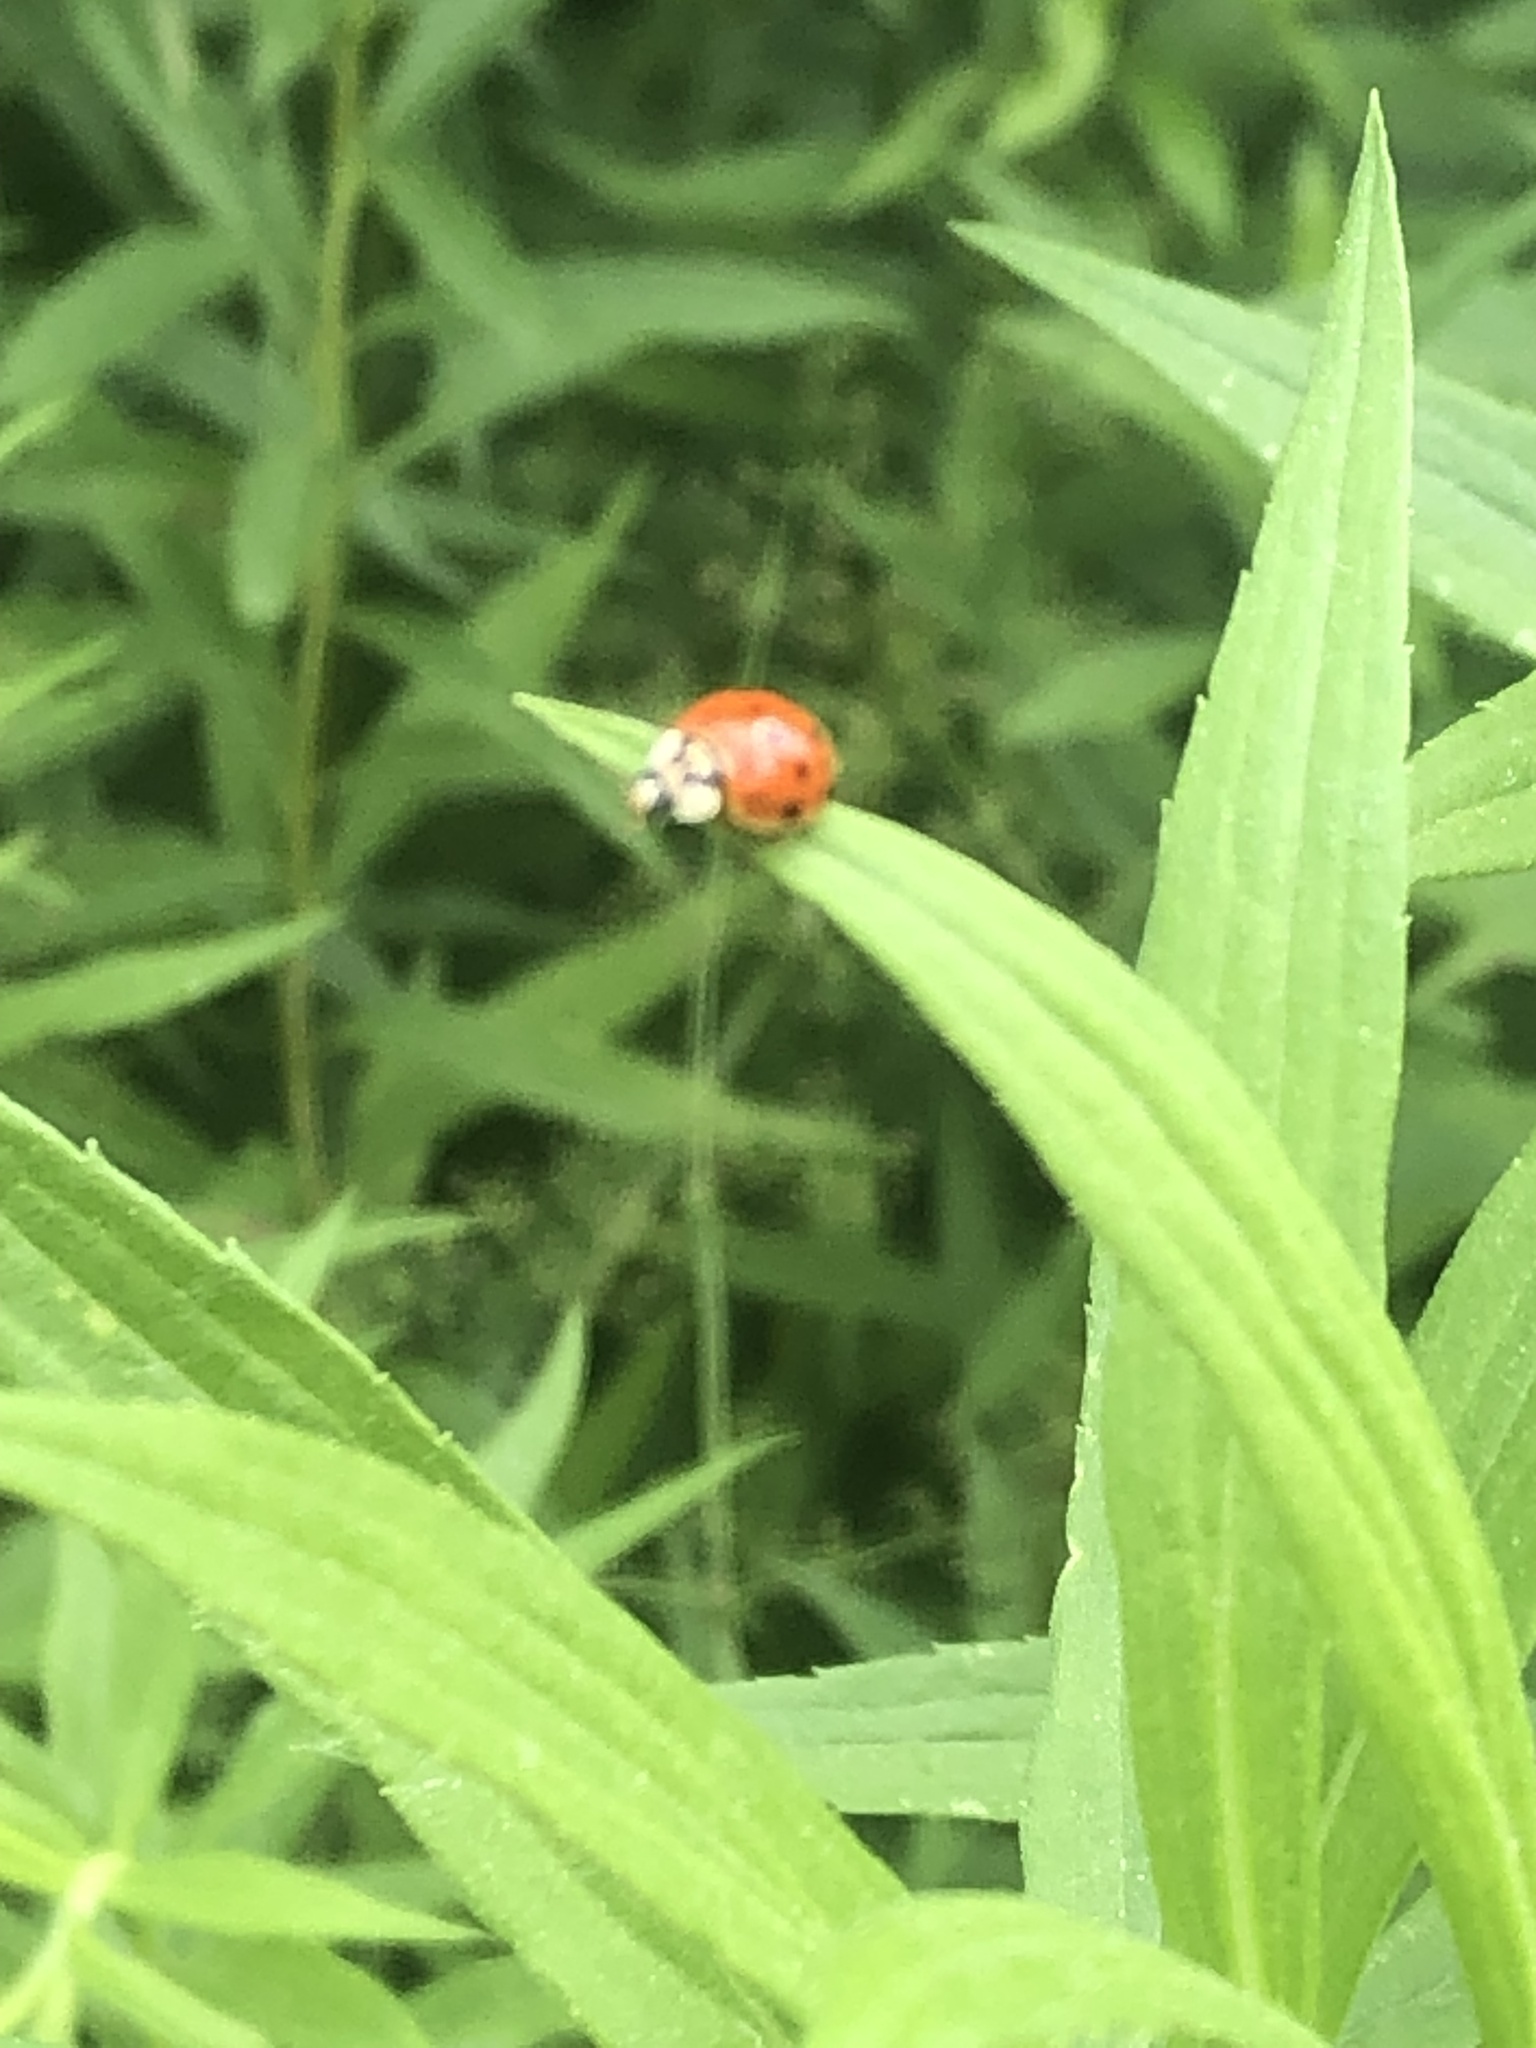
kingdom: Animalia
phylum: Arthropoda
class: Insecta
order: Coleoptera
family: Coccinellidae
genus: Harmonia
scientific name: Harmonia axyridis
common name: Harlequin ladybird
